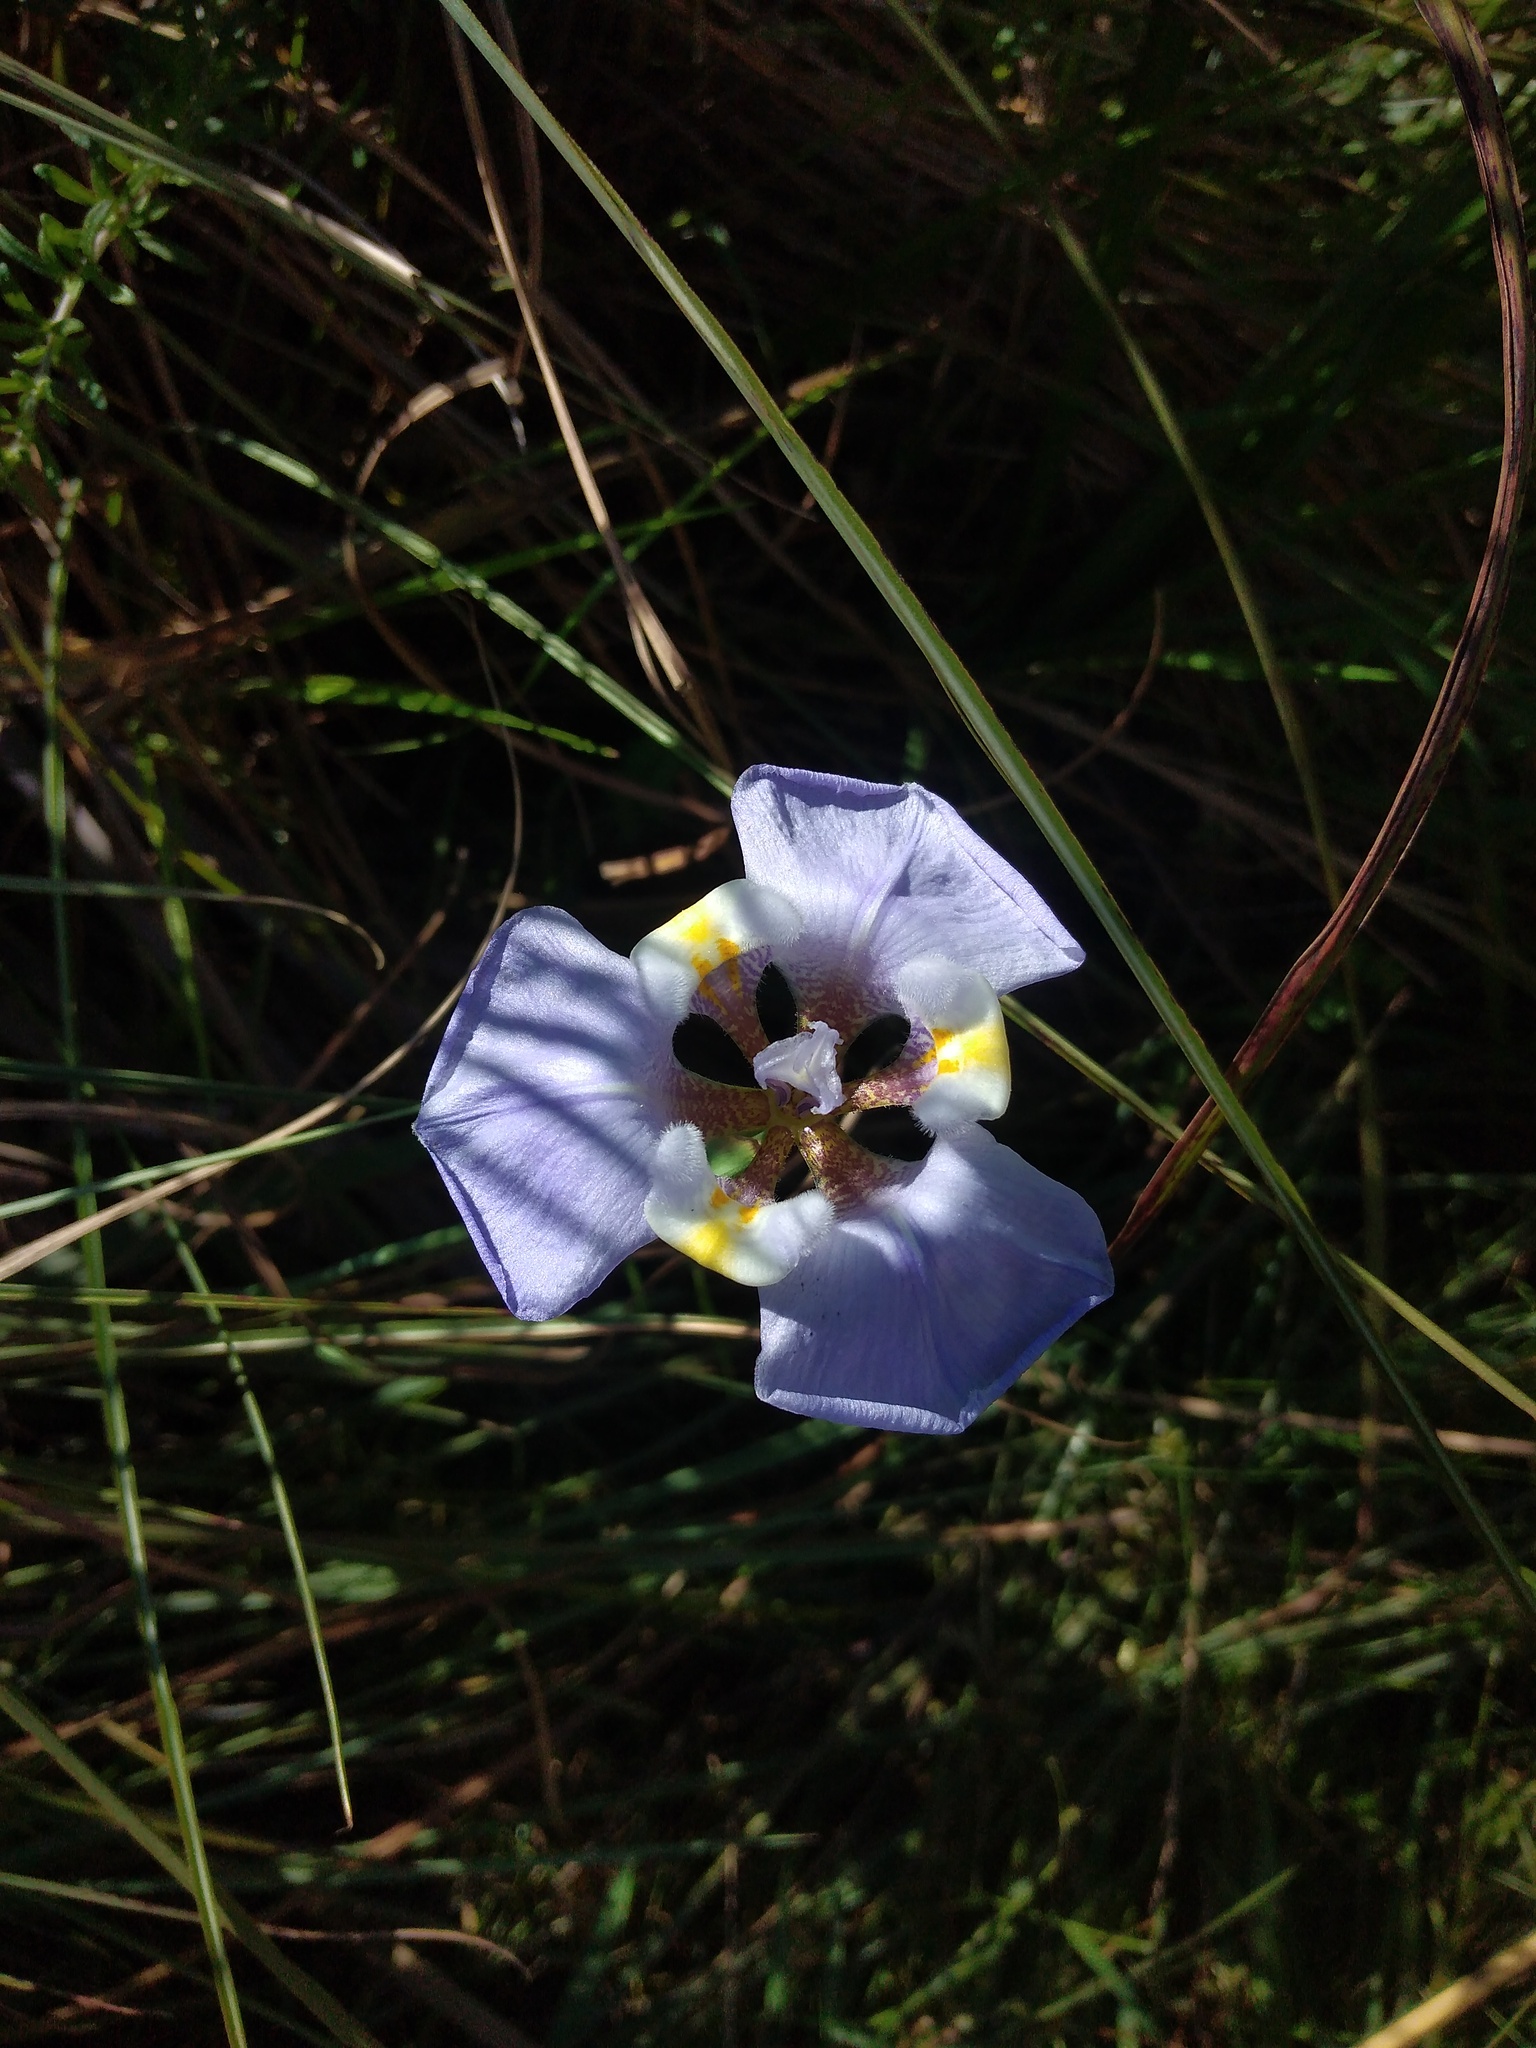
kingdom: Plantae
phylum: Tracheophyta
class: Liliopsida
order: Asparagales
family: Iridaceae
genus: Phalocallis
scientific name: Phalocallis coelestis
